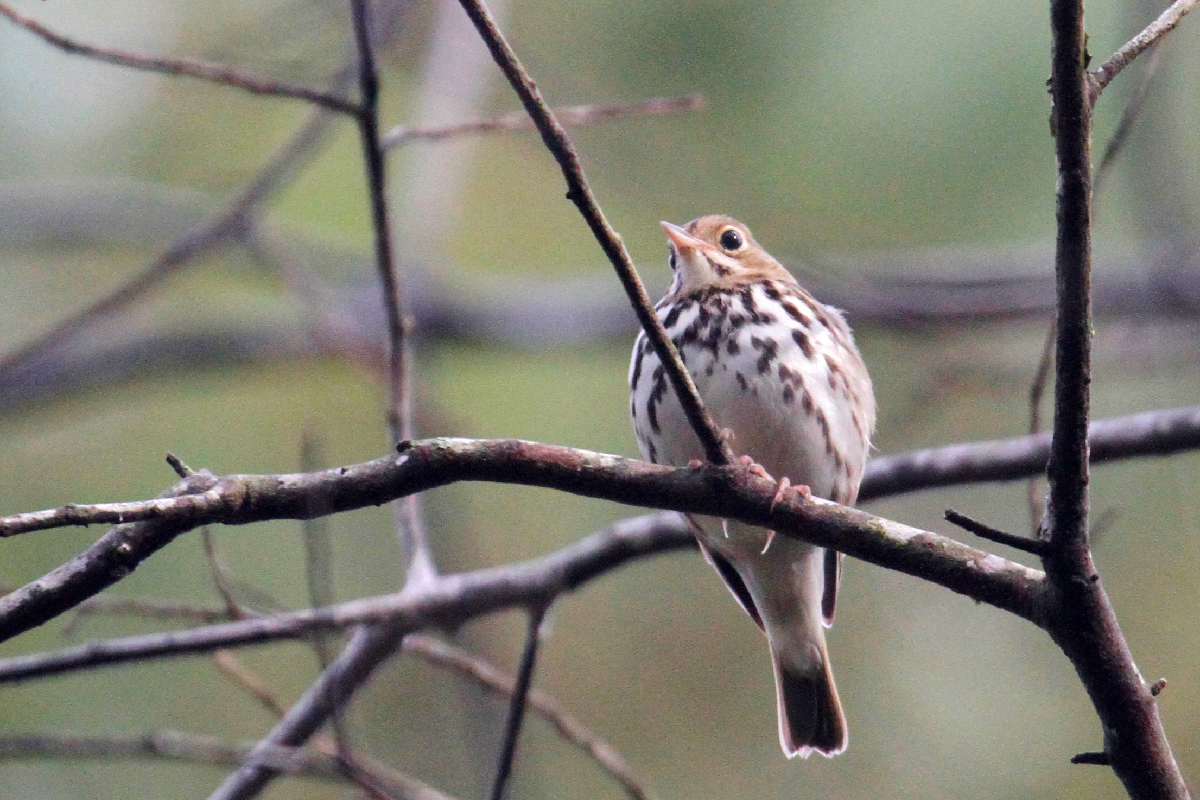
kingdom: Animalia
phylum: Chordata
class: Aves
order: Passeriformes
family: Parulidae
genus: Seiurus
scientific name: Seiurus aurocapilla
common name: Ovenbird
